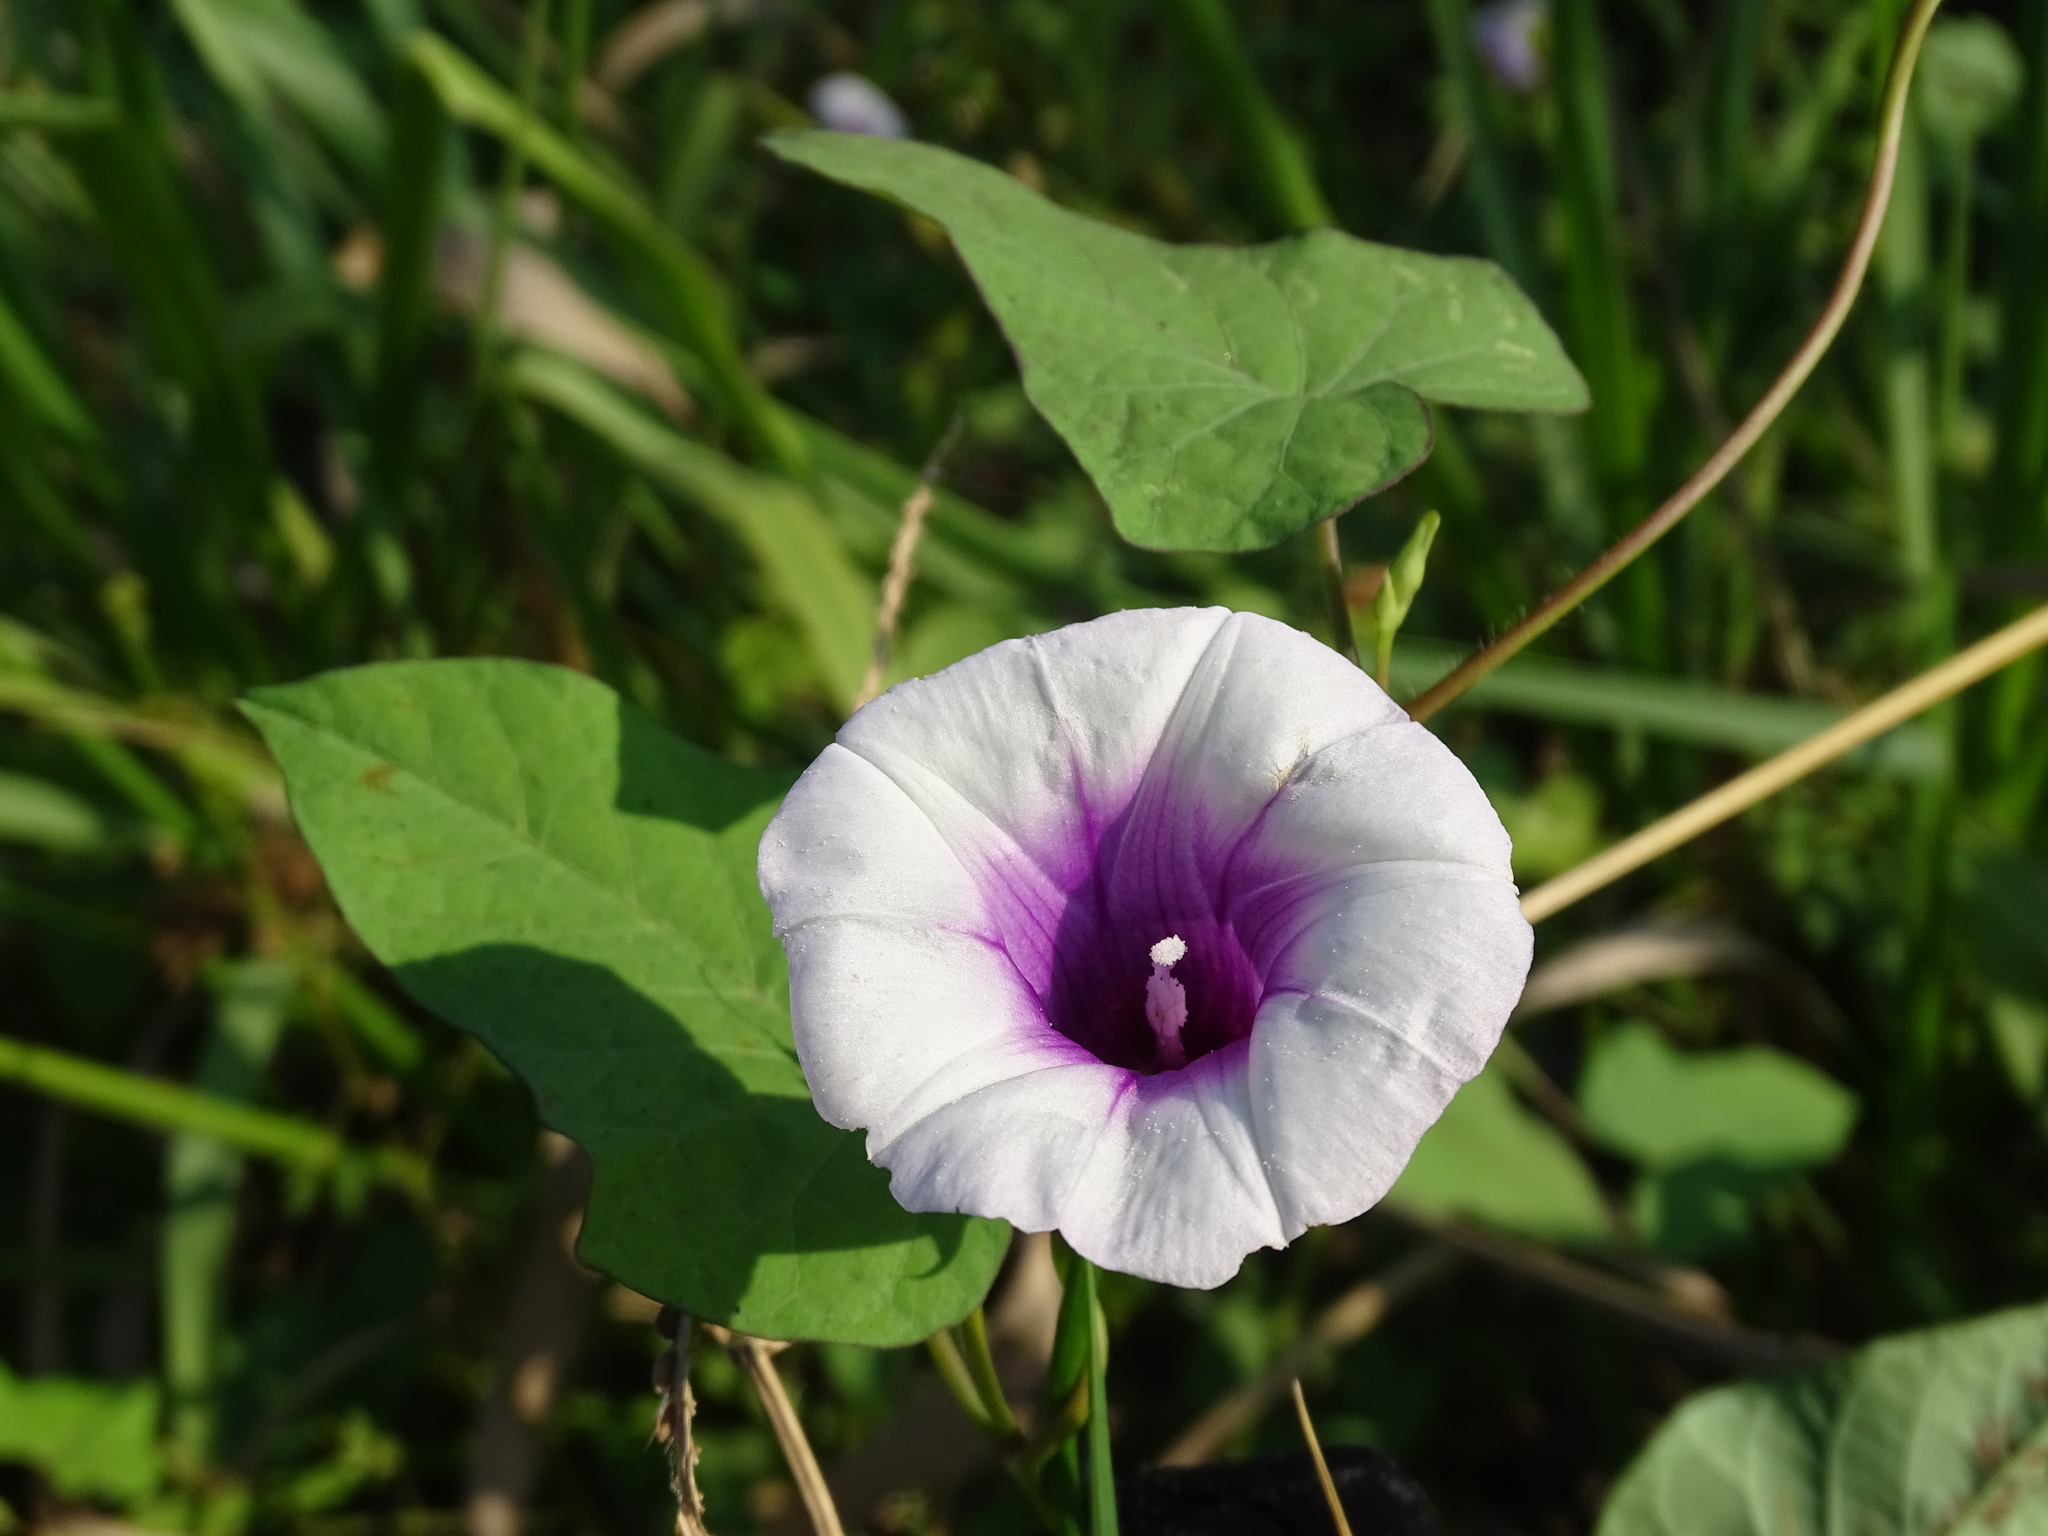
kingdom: Plantae
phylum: Tracheophyta
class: Magnoliopsida
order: Solanales
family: Convolvulaceae
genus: Ipomoea
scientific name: Ipomoea batatas
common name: Sweet-potato
